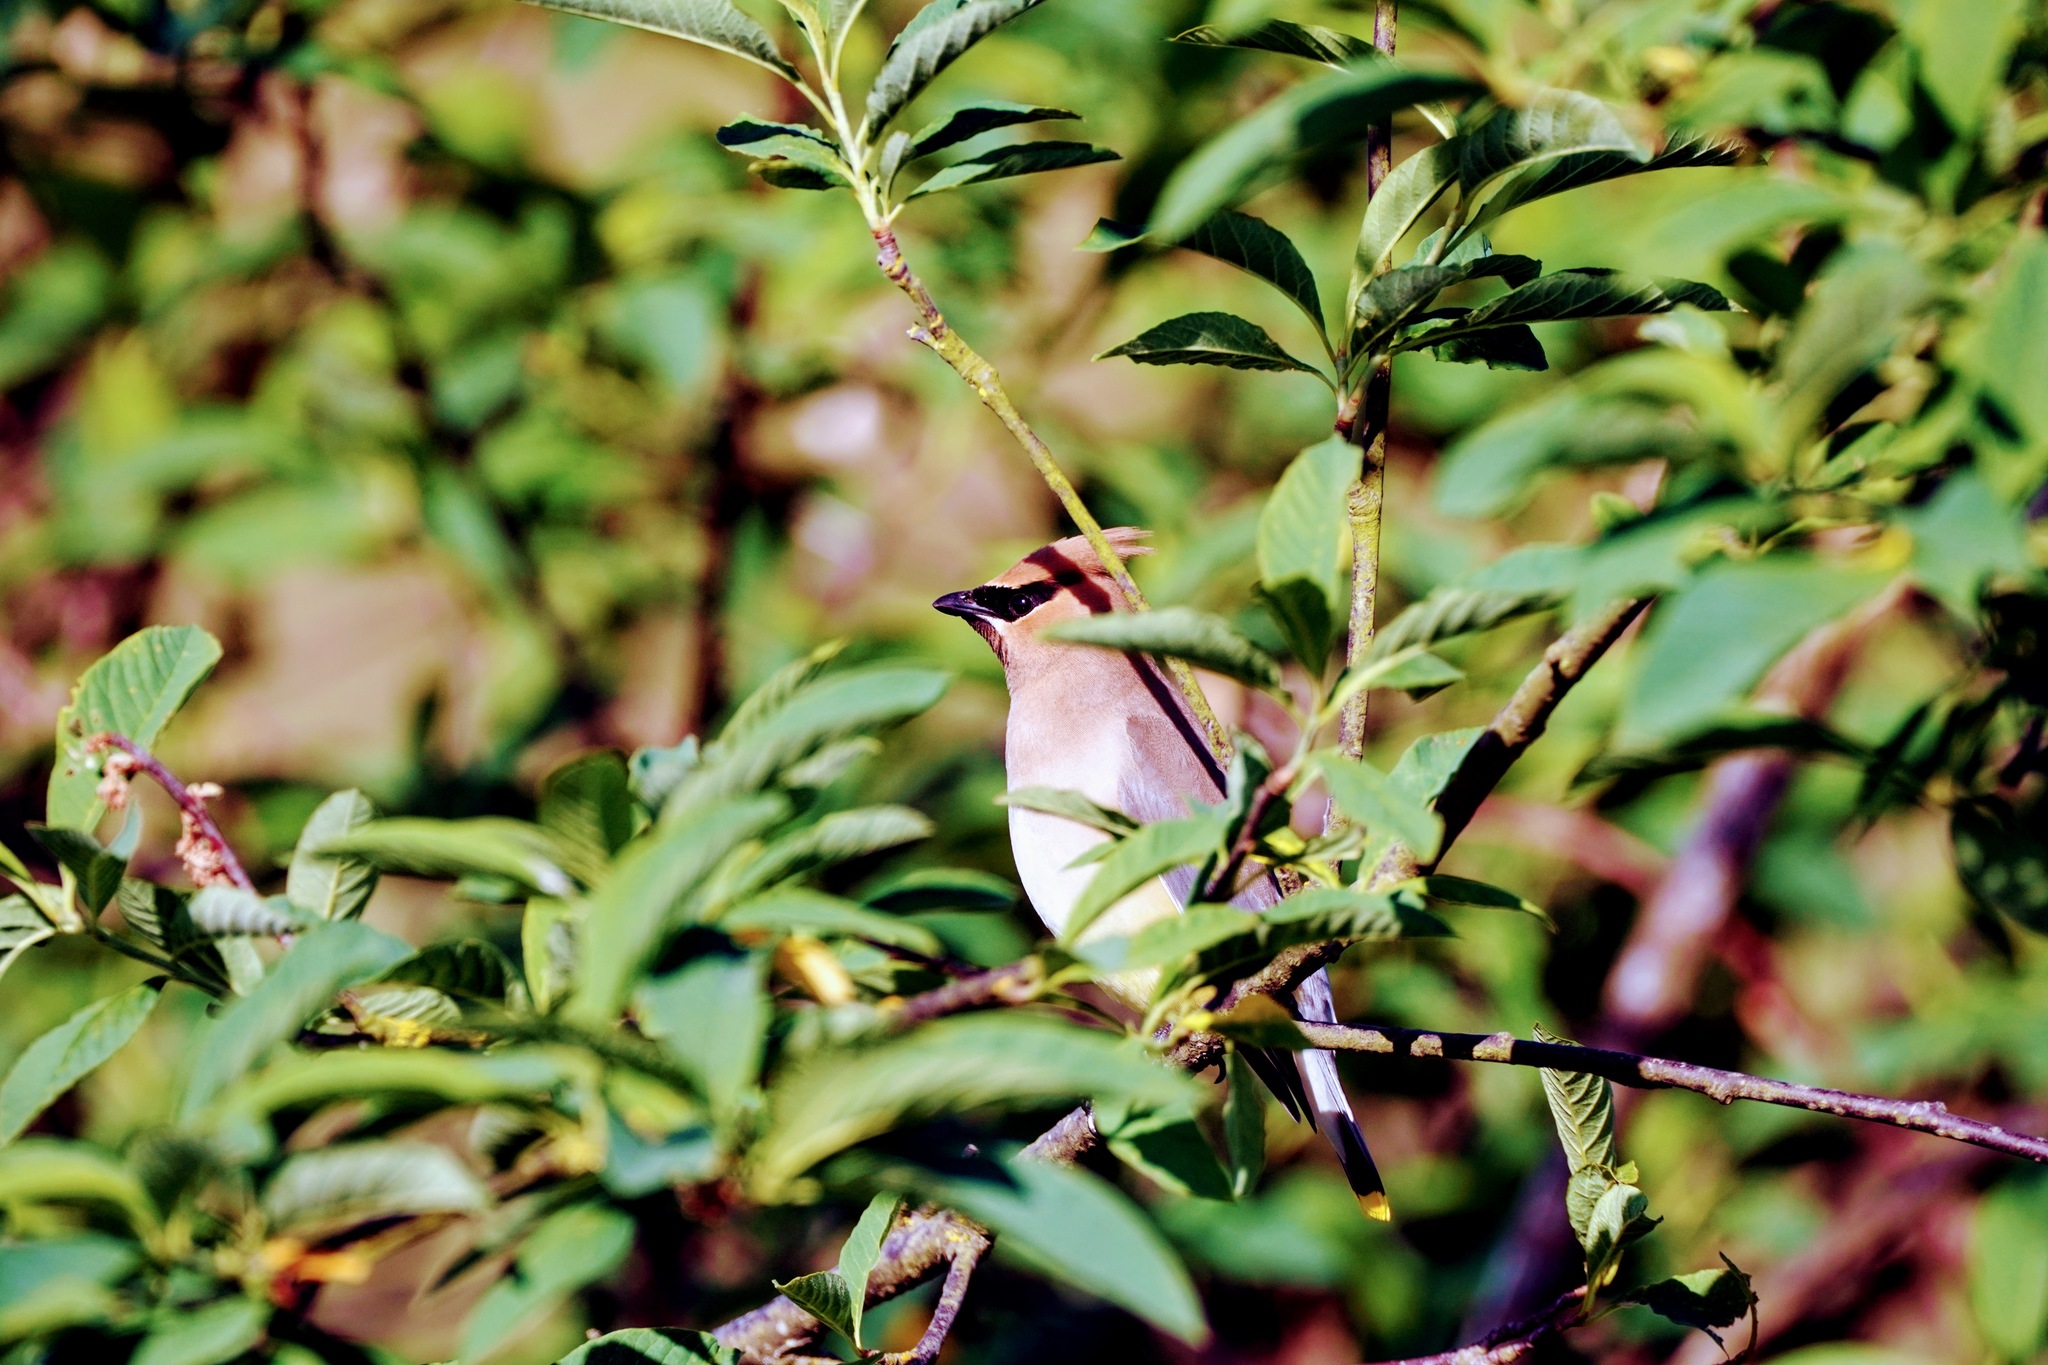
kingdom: Animalia
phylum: Chordata
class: Aves
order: Passeriformes
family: Bombycillidae
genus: Bombycilla
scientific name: Bombycilla cedrorum
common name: Cedar waxwing
